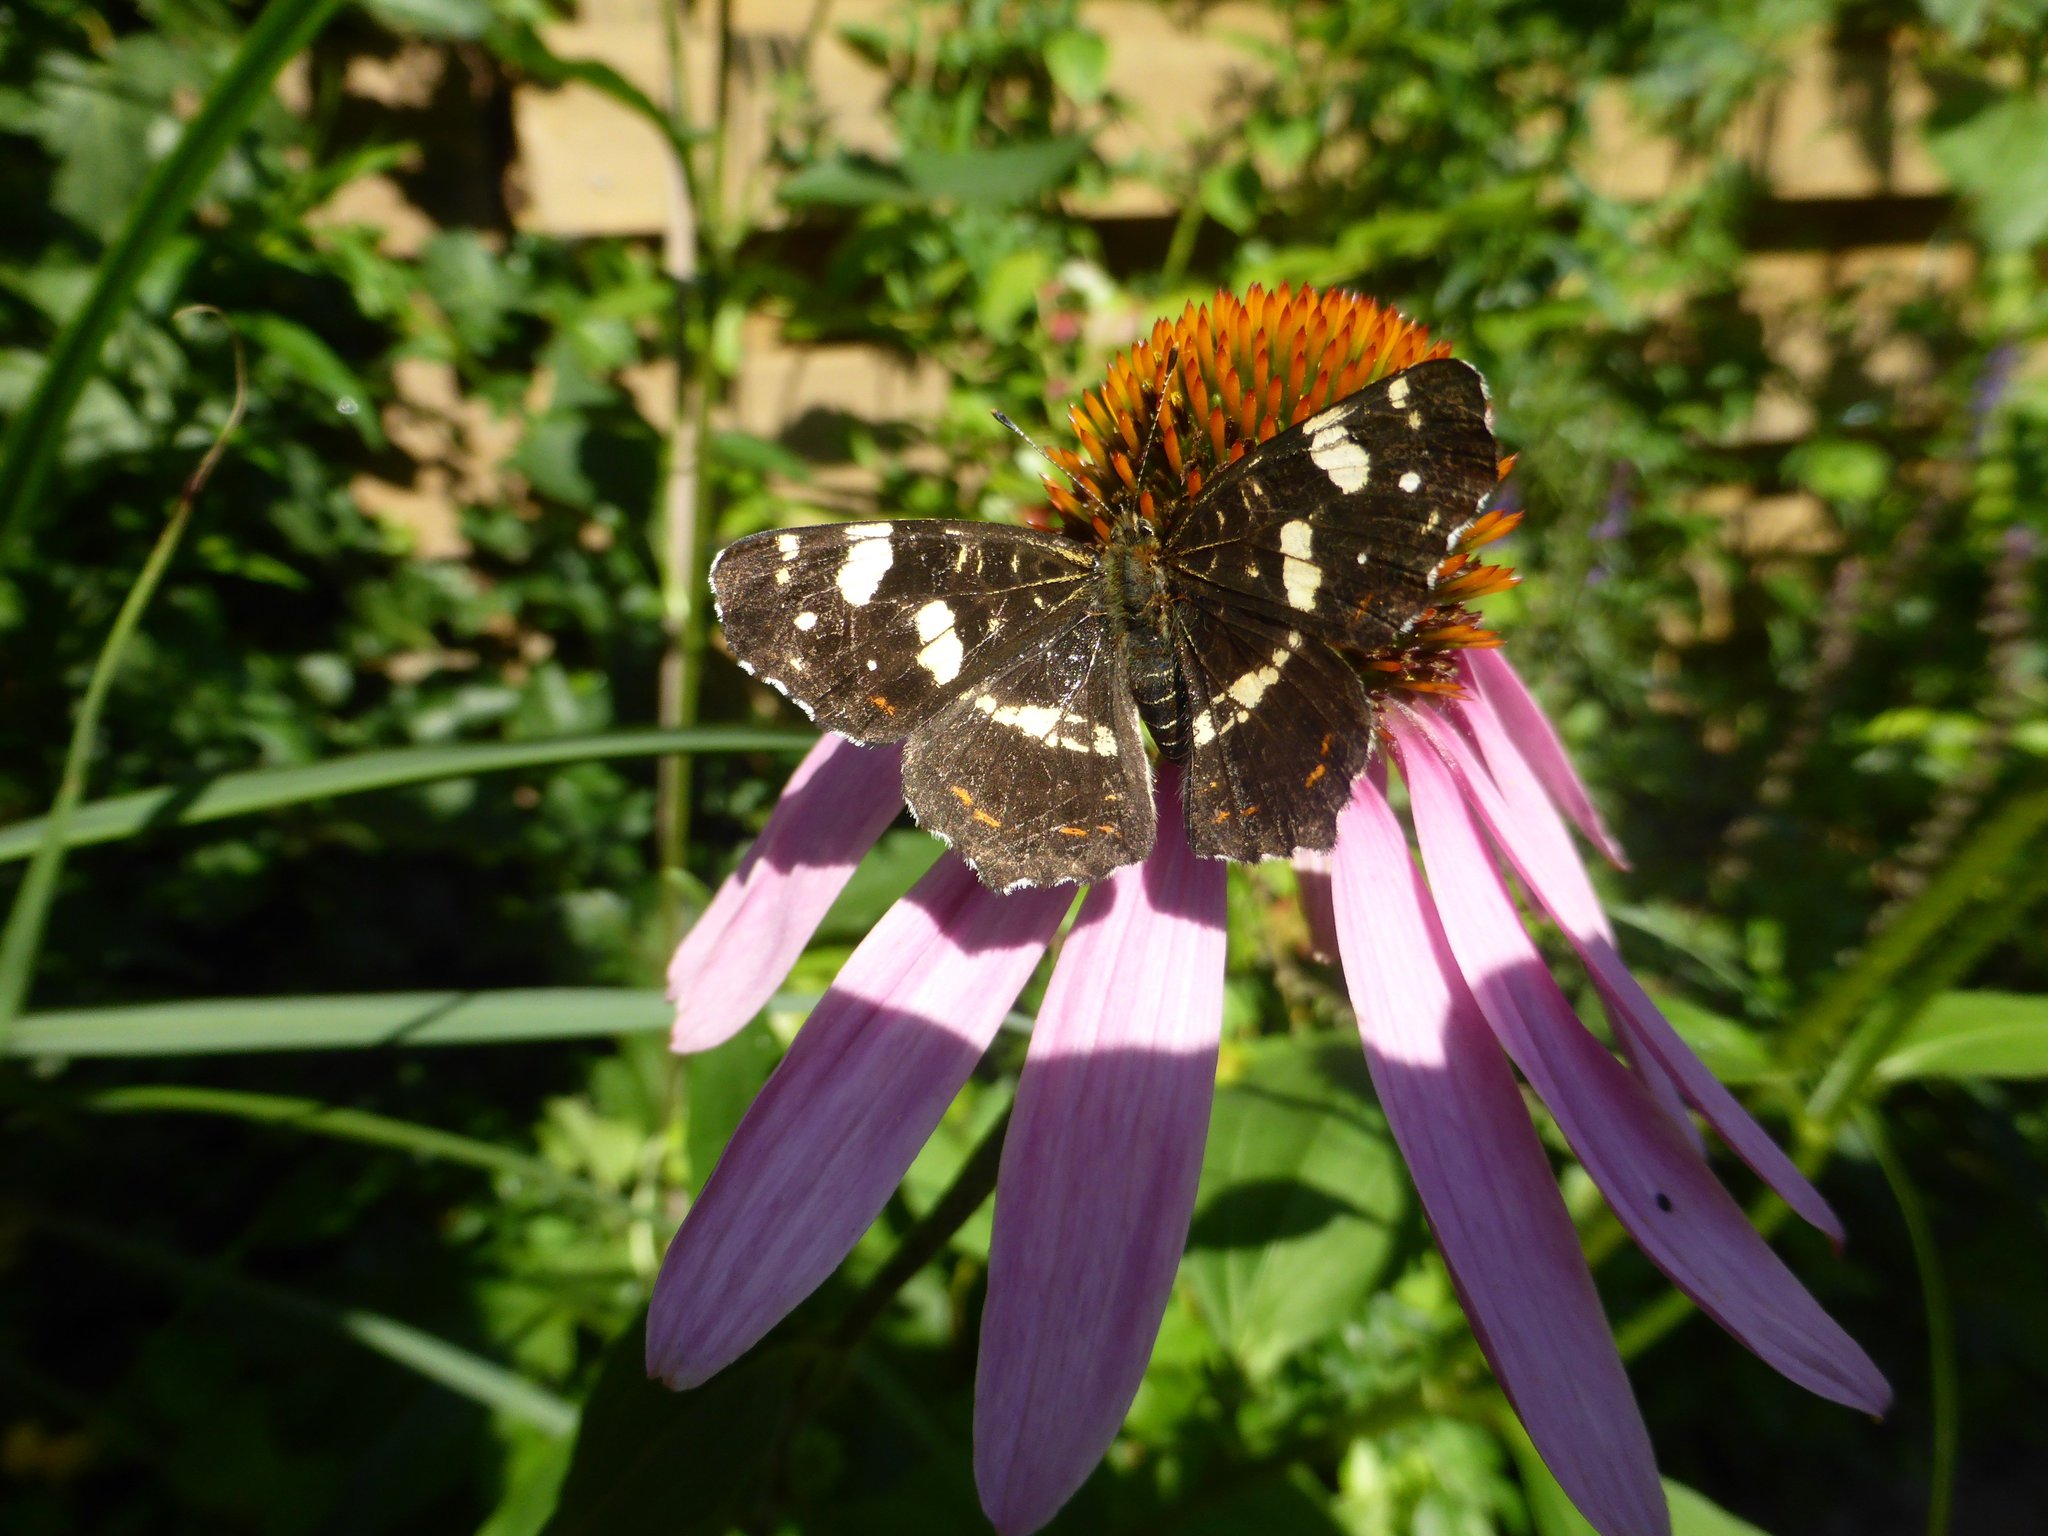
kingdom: Animalia
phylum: Arthropoda
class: Insecta
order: Lepidoptera
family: Nymphalidae
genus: Araschnia
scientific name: Araschnia levana
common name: Map butterfly
